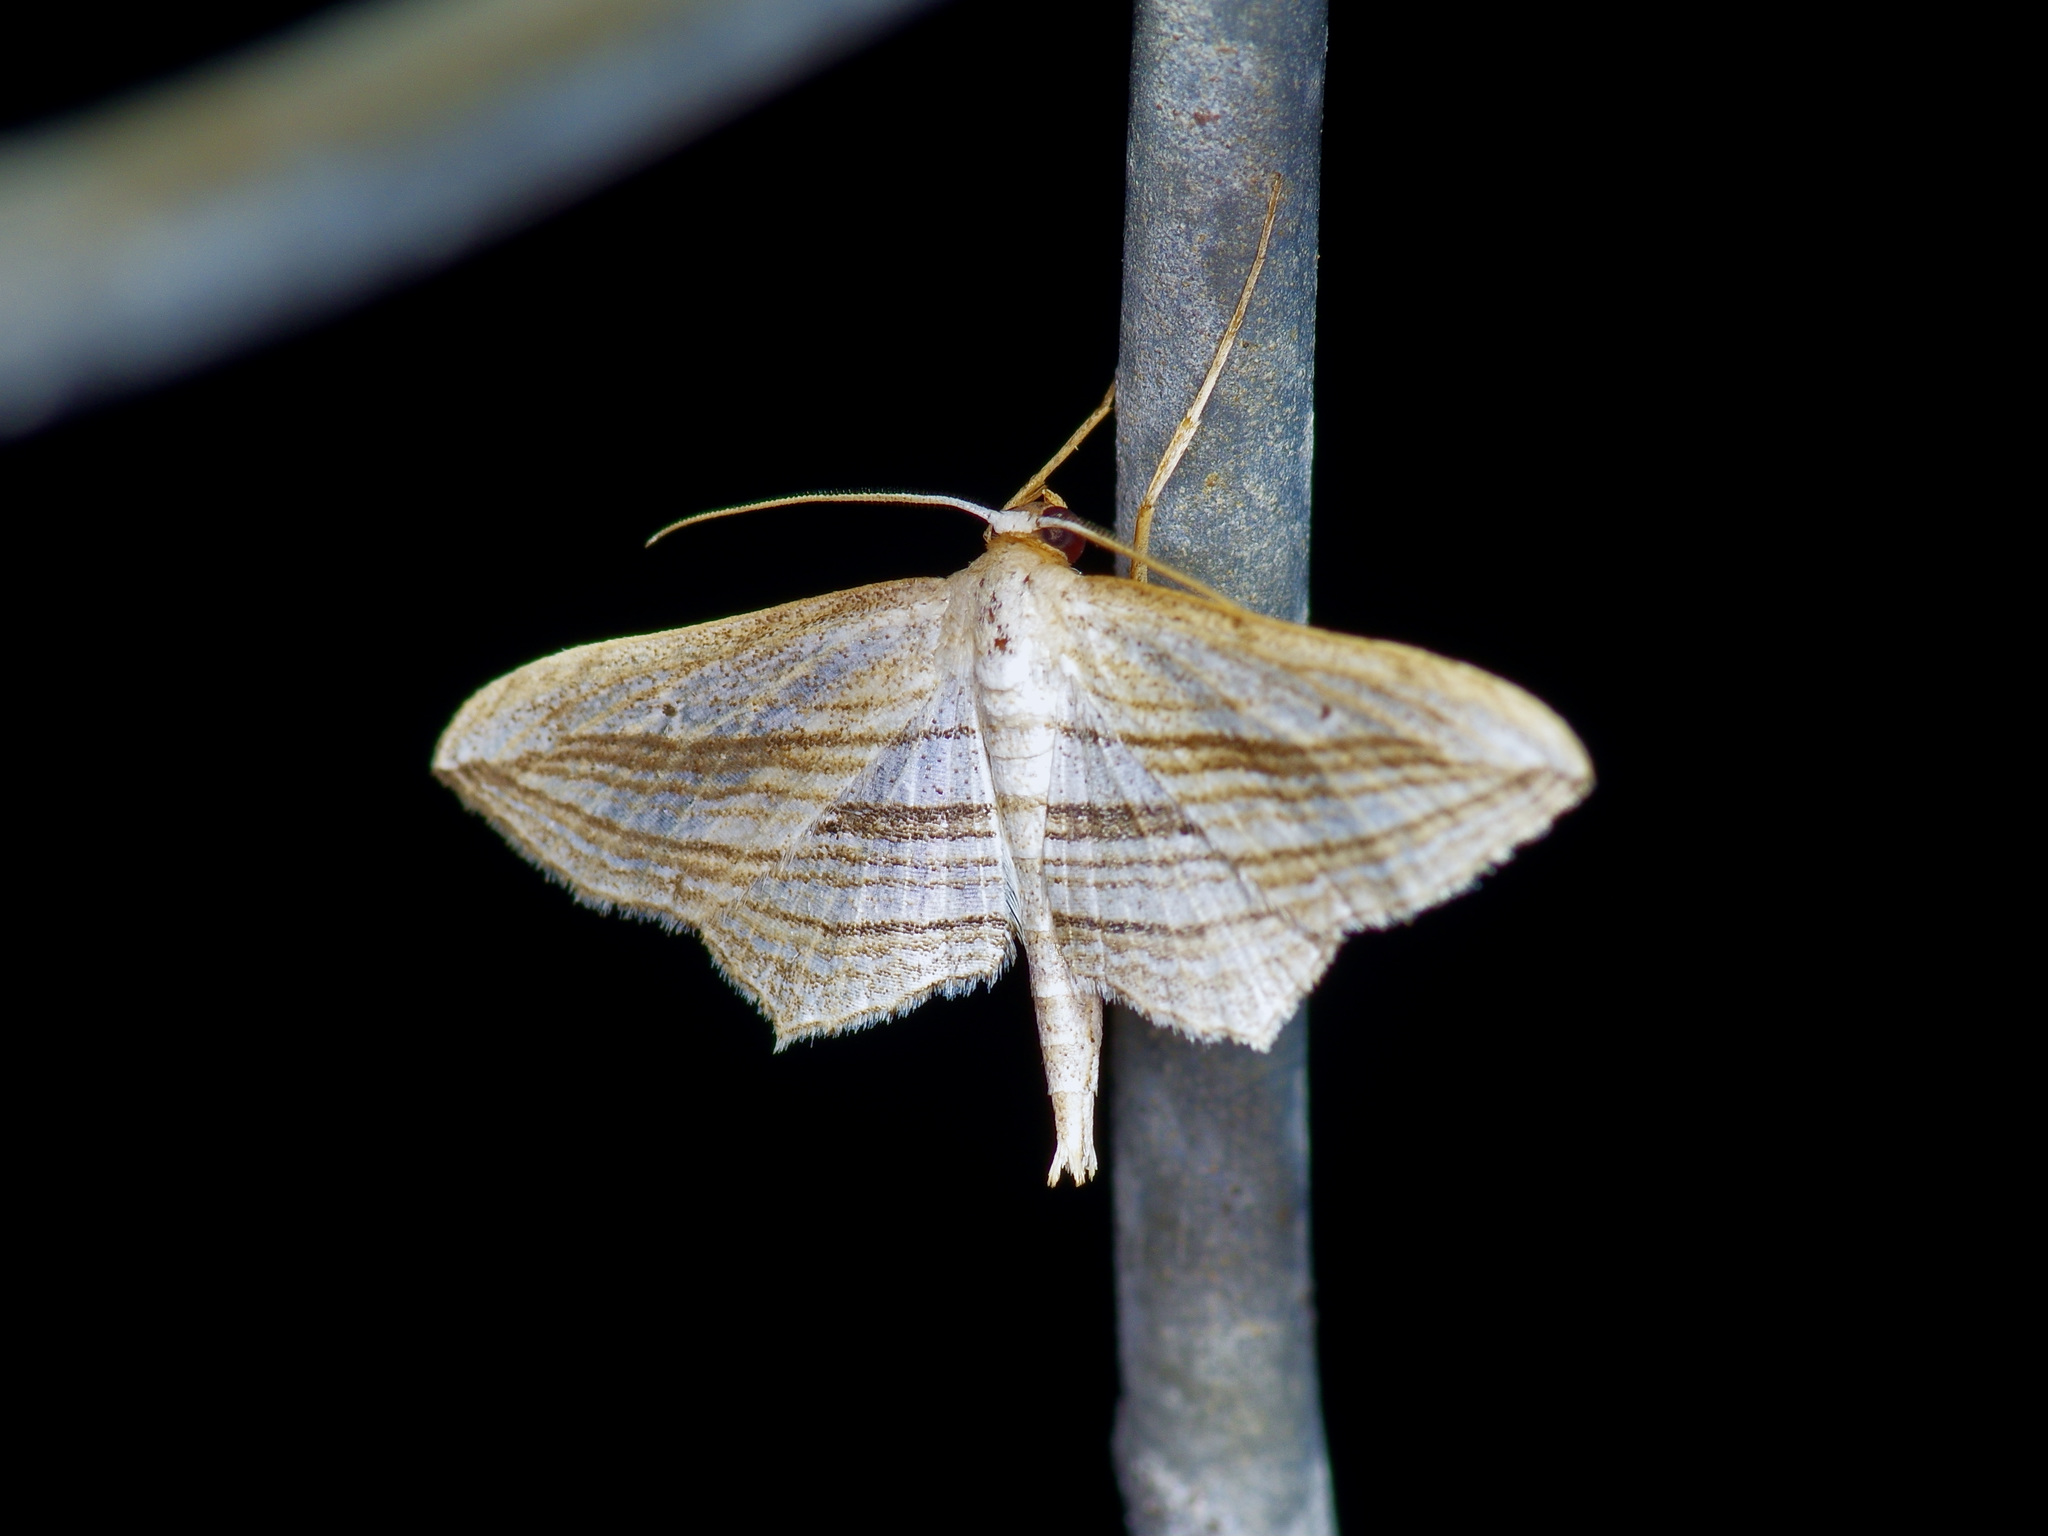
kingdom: Animalia
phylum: Arthropoda
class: Insecta
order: Lepidoptera
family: Geometridae
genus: Arcobara
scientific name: Arcobara multilineata
